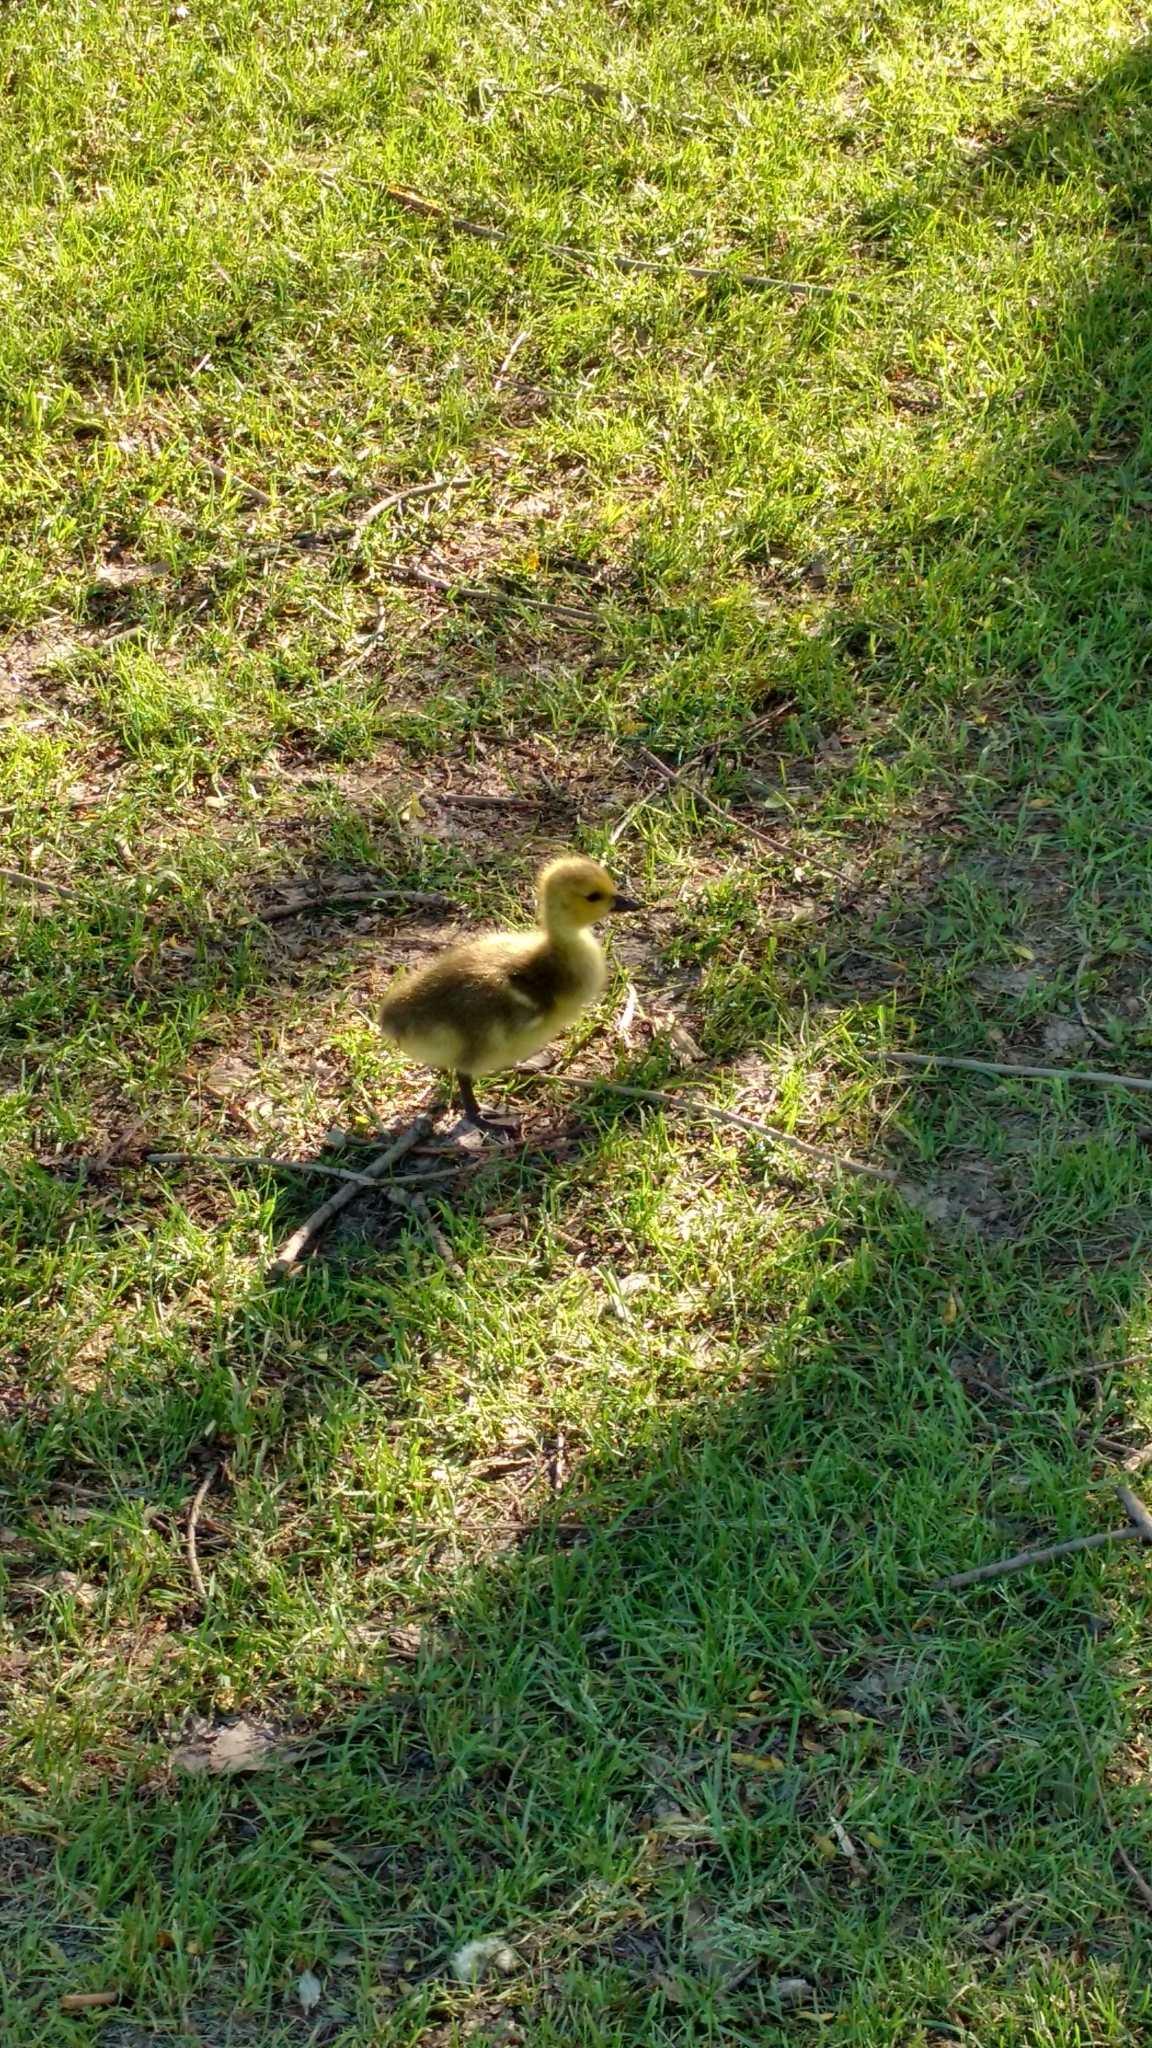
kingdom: Animalia
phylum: Chordata
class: Aves
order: Anseriformes
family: Anatidae
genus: Branta
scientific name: Branta canadensis
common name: Canada goose
